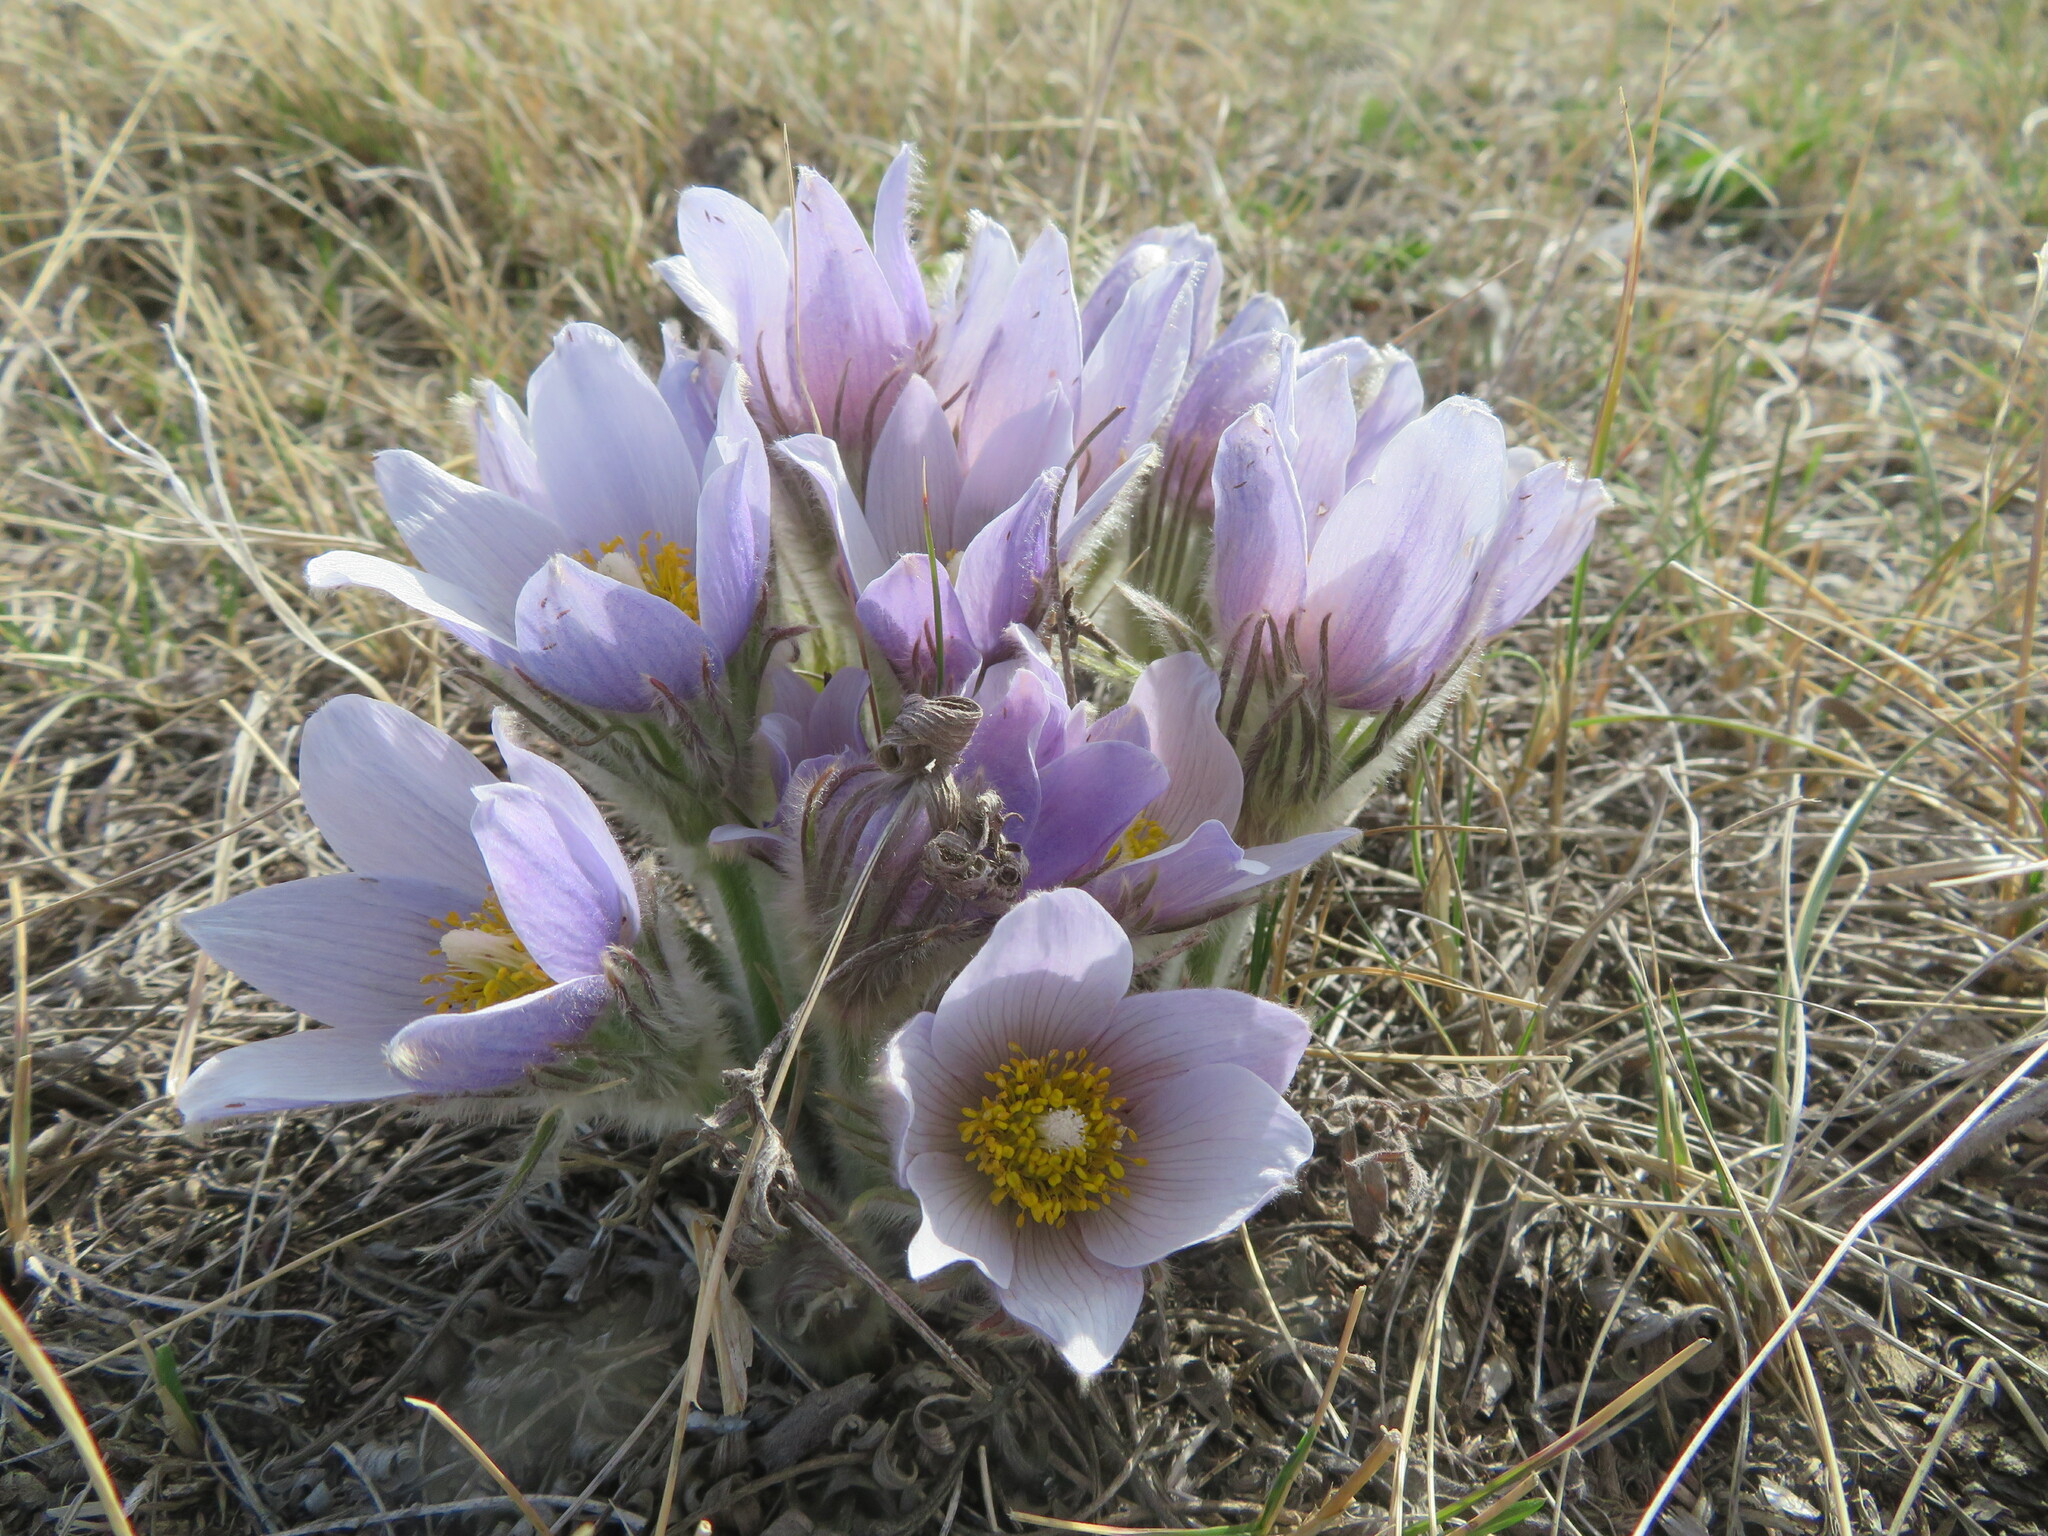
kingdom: Plantae
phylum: Tracheophyta
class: Magnoliopsida
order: Ranunculales
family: Ranunculaceae
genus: Pulsatilla
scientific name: Pulsatilla nuttalliana
